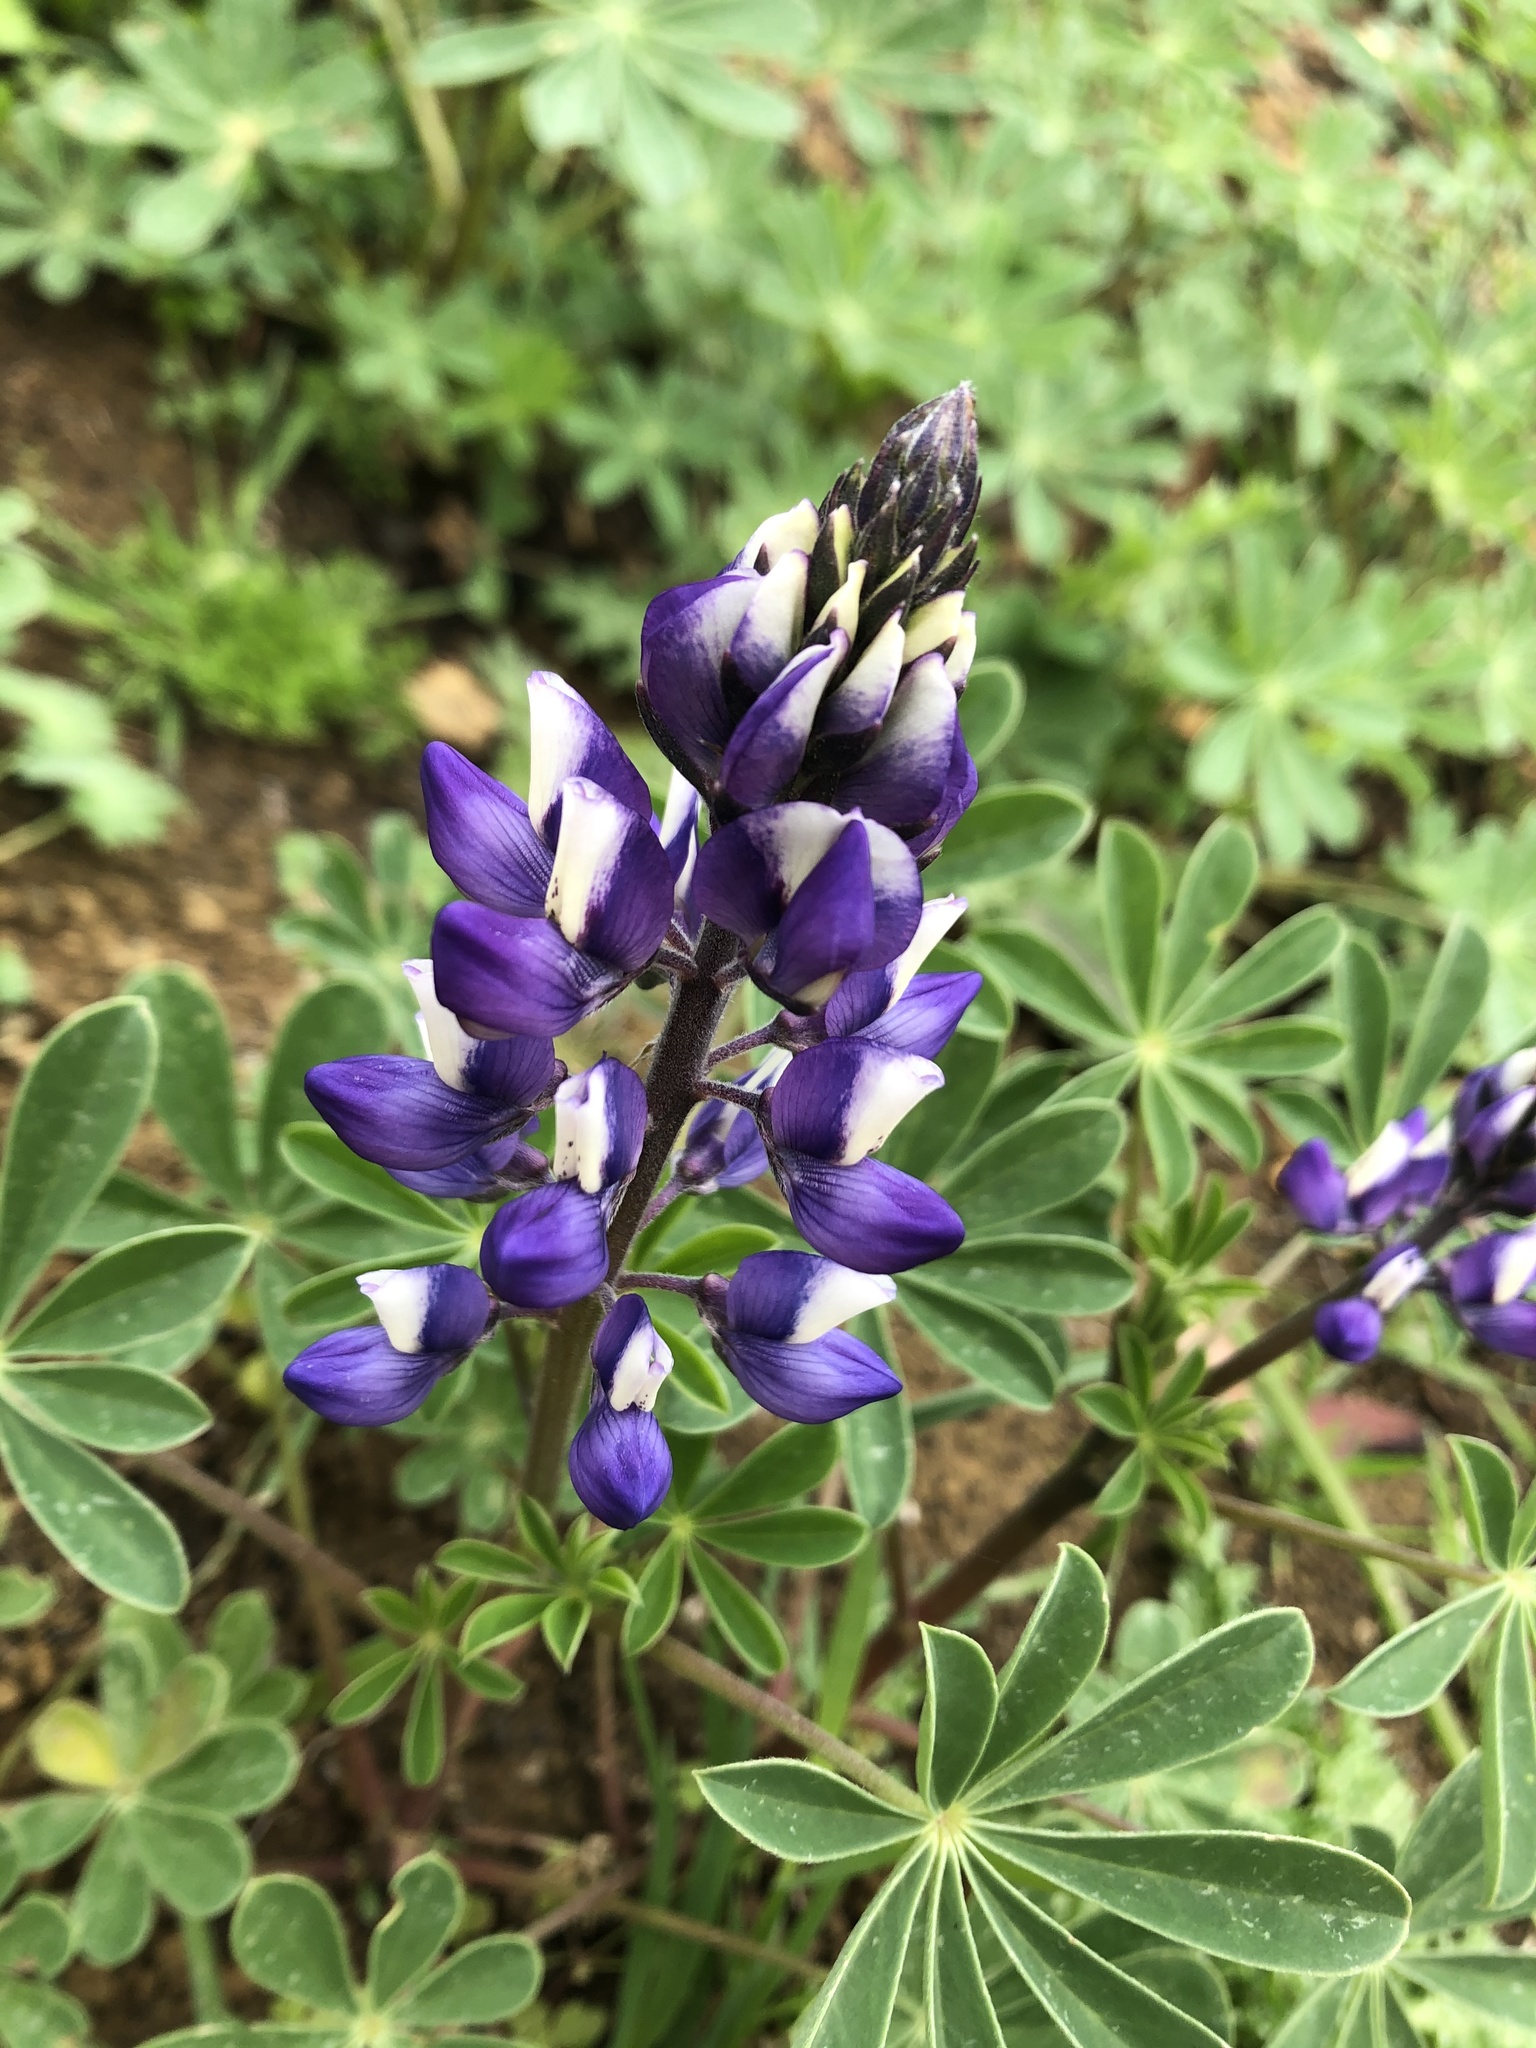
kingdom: Plantae
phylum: Tracheophyta
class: Magnoliopsida
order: Fabales
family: Fabaceae
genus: Lupinus
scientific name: Lupinus succulentus
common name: Arroyo lupine
